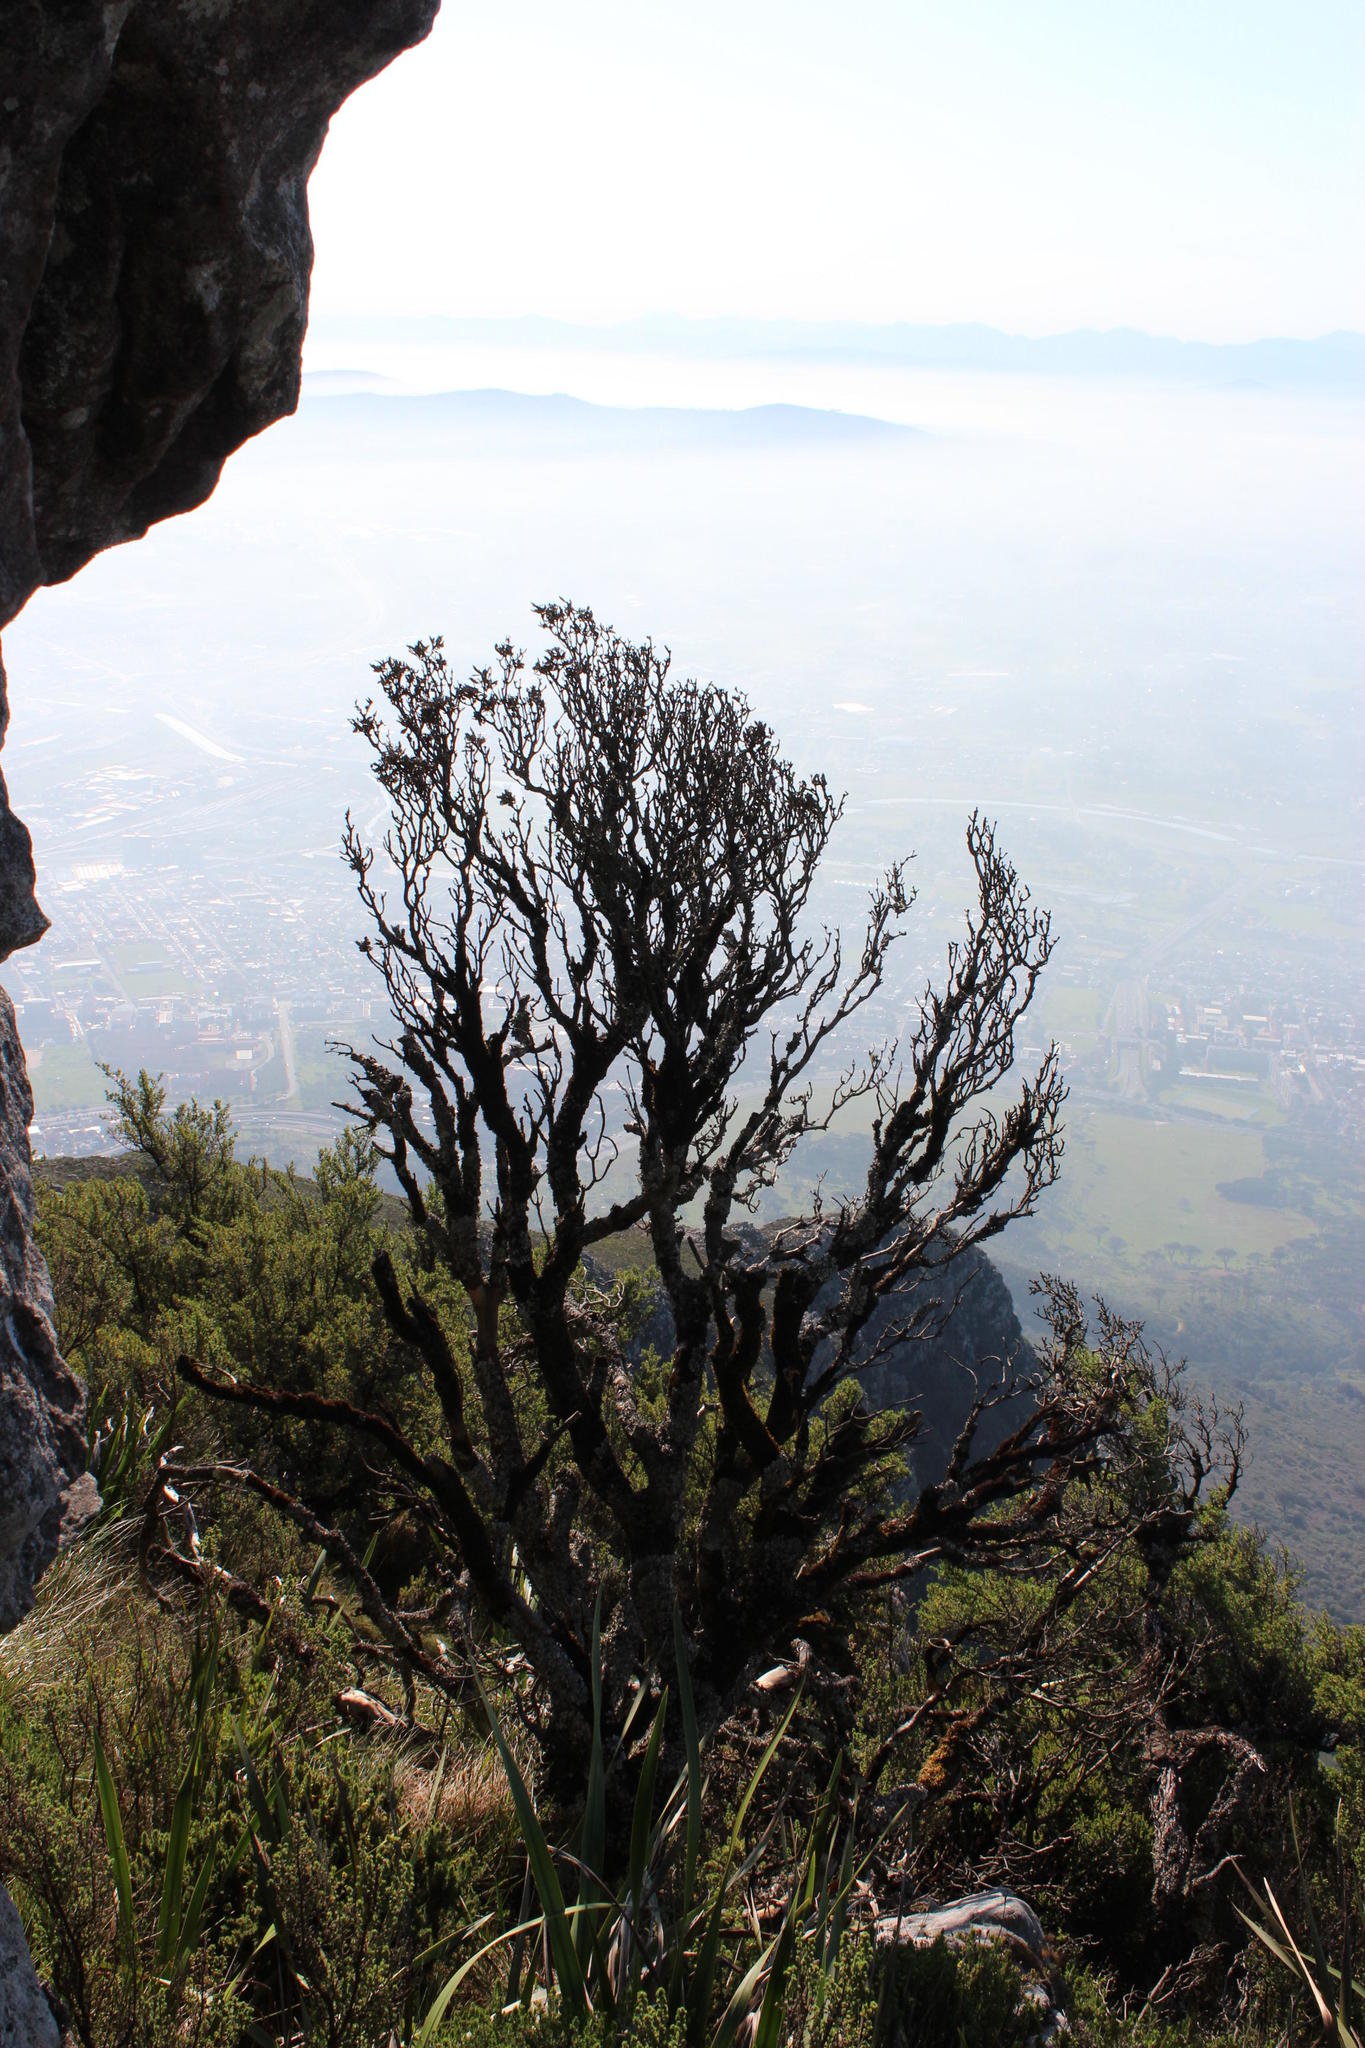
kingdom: Plantae
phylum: Tracheophyta
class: Magnoliopsida
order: Proteales
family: Proteaceae
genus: Leucadendron
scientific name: Leucadendron strobilinum
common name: Mountain rose
